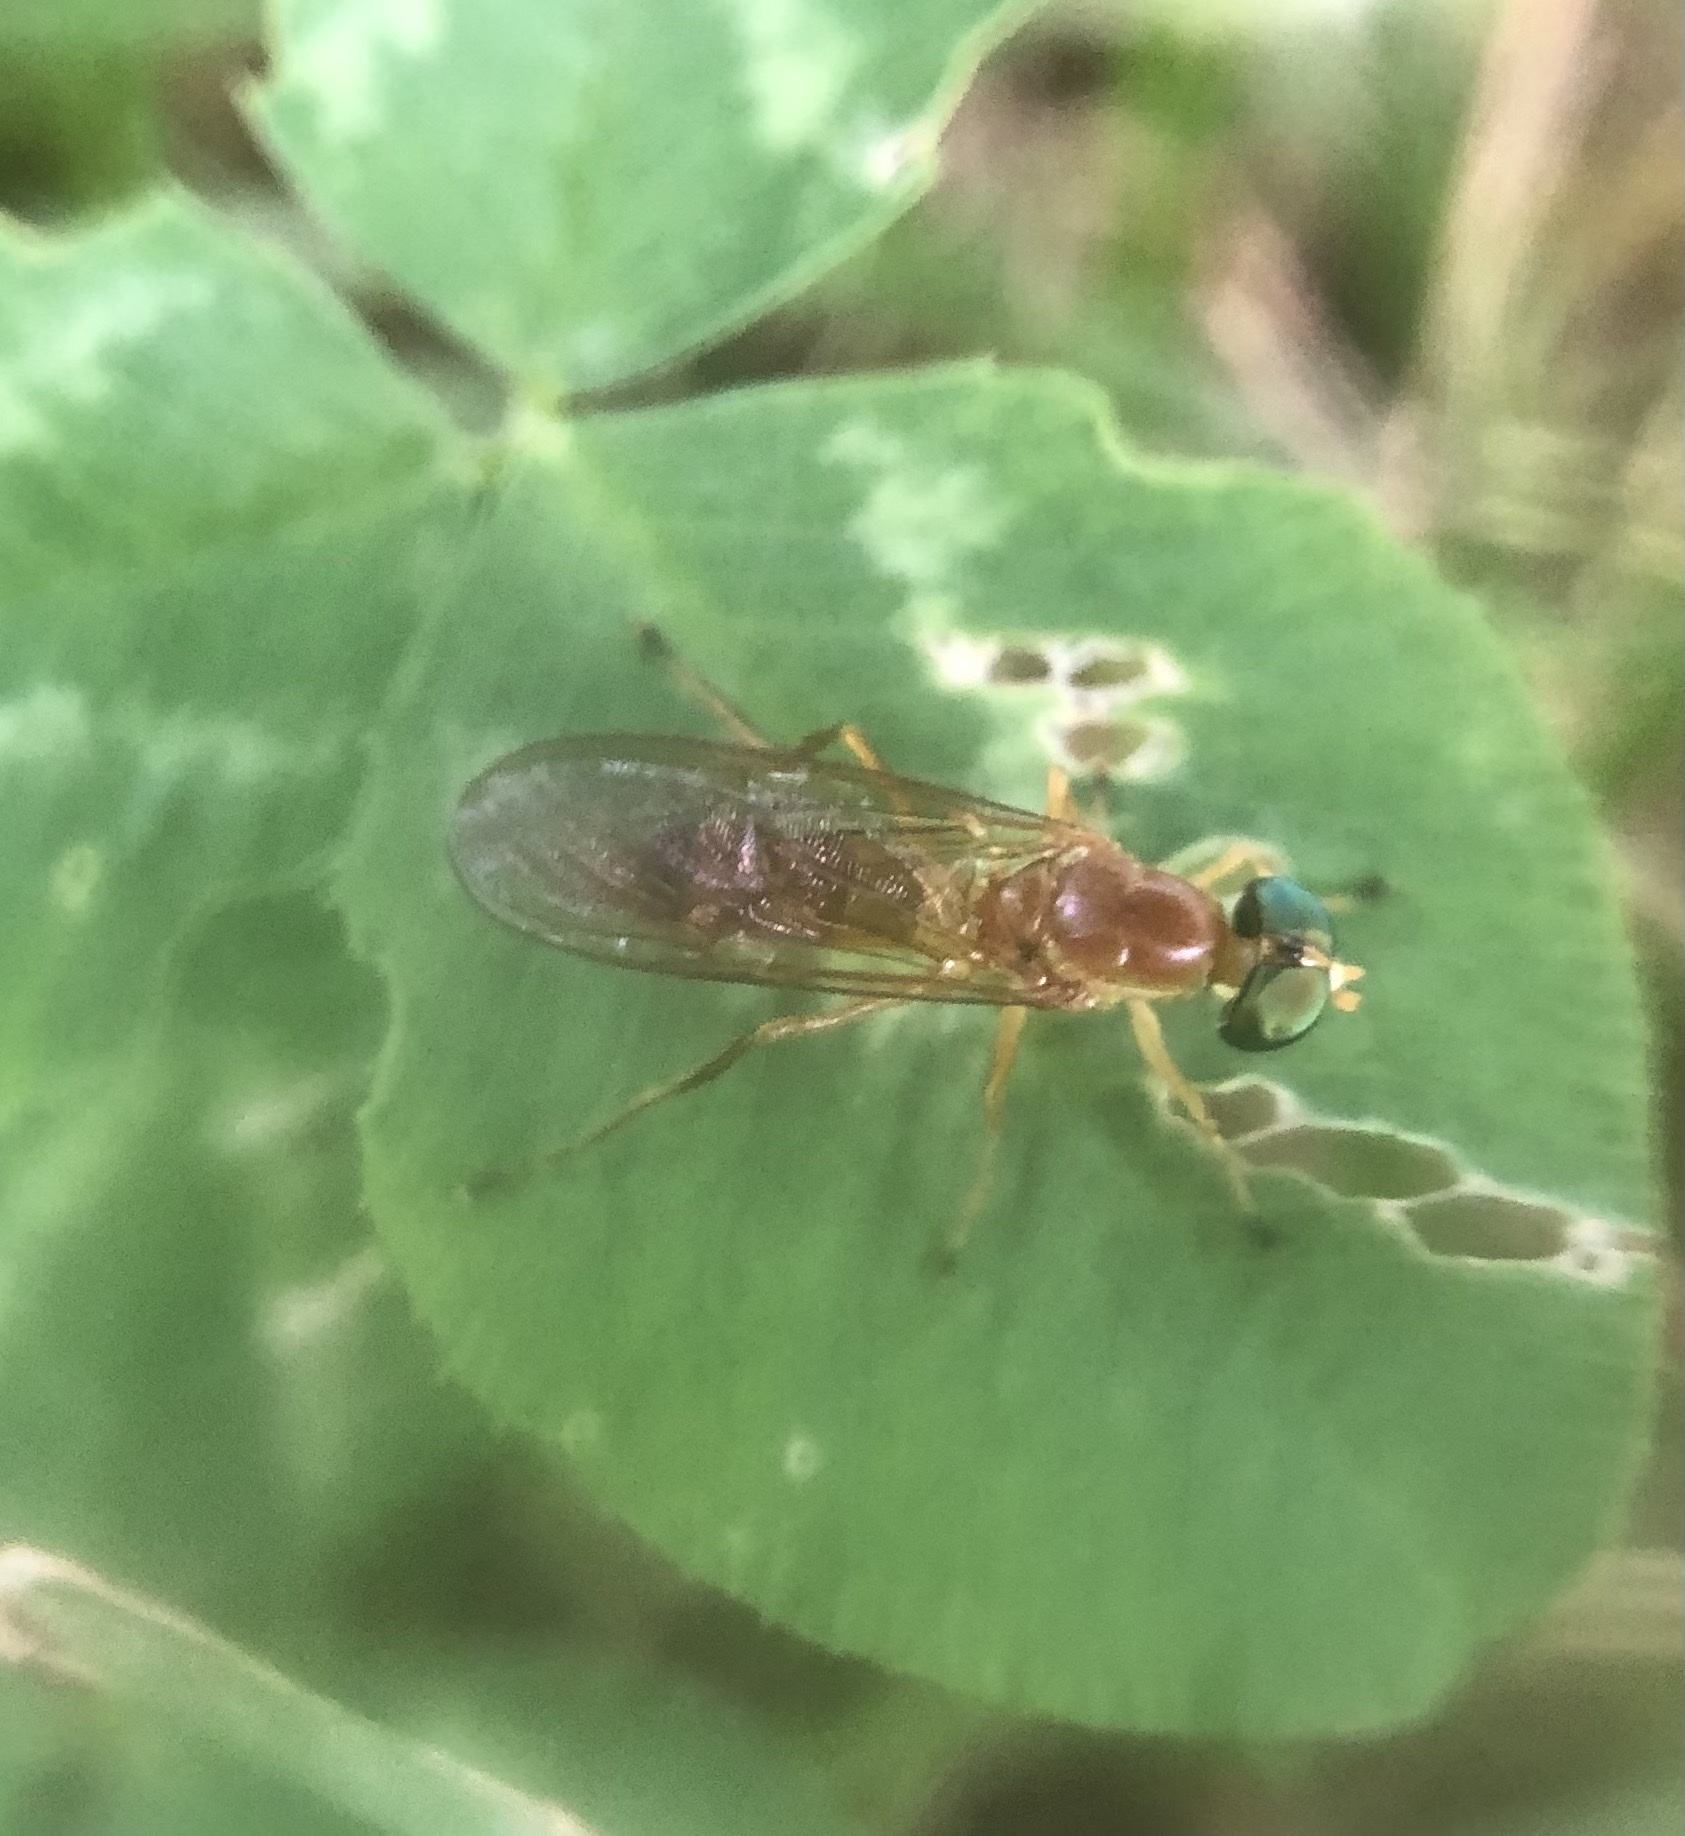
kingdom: Animalia
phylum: Arthropoda
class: Insecta
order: Diptera
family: Stratiomyidae
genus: Ptecticus
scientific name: Ptecticus trivittatus
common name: Compost fly
